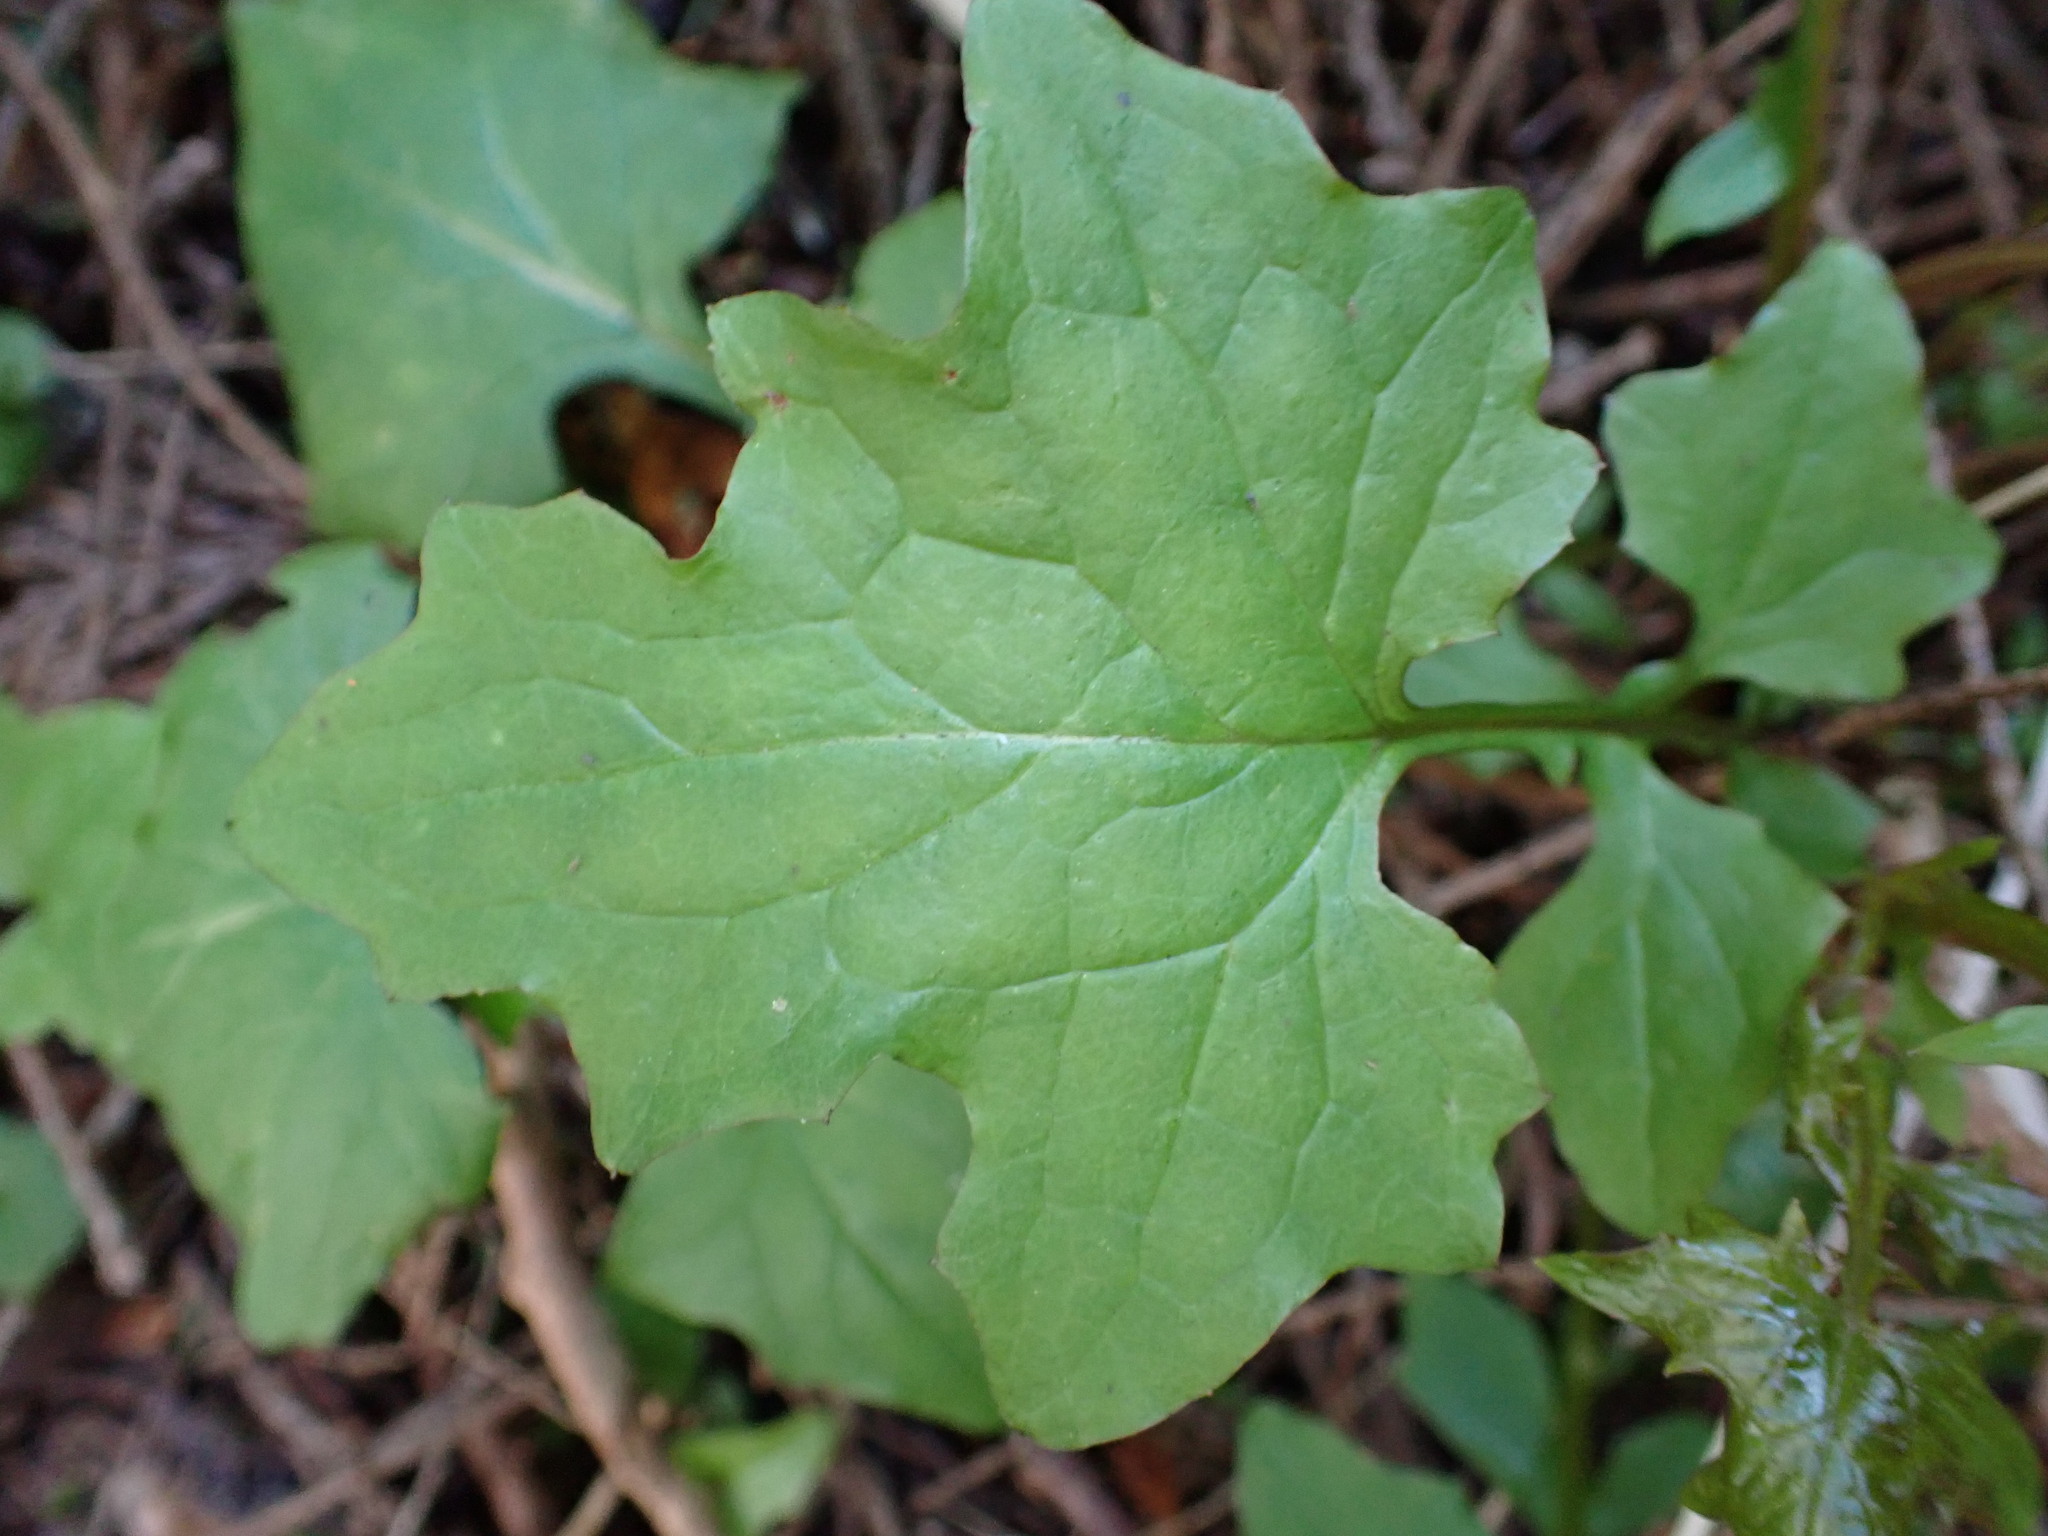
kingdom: Plantae
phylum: Tracheophyta
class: Magnoliopsida
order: Asterales
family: Asteraceae
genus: Mycelis
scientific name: Mycelis muralis
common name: Wall lettuce
